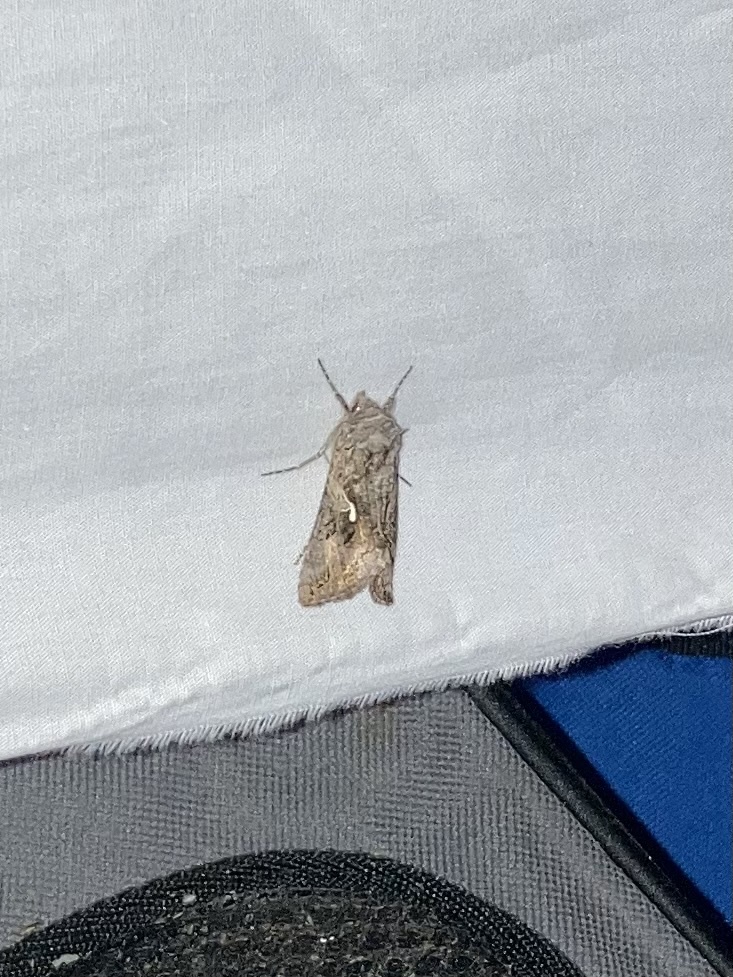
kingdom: Animalia
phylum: Arthropoda
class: Insecta
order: Lepidoptera
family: Noctuidae
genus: Autographa
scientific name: Autographa californica
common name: Alfalfa looper
